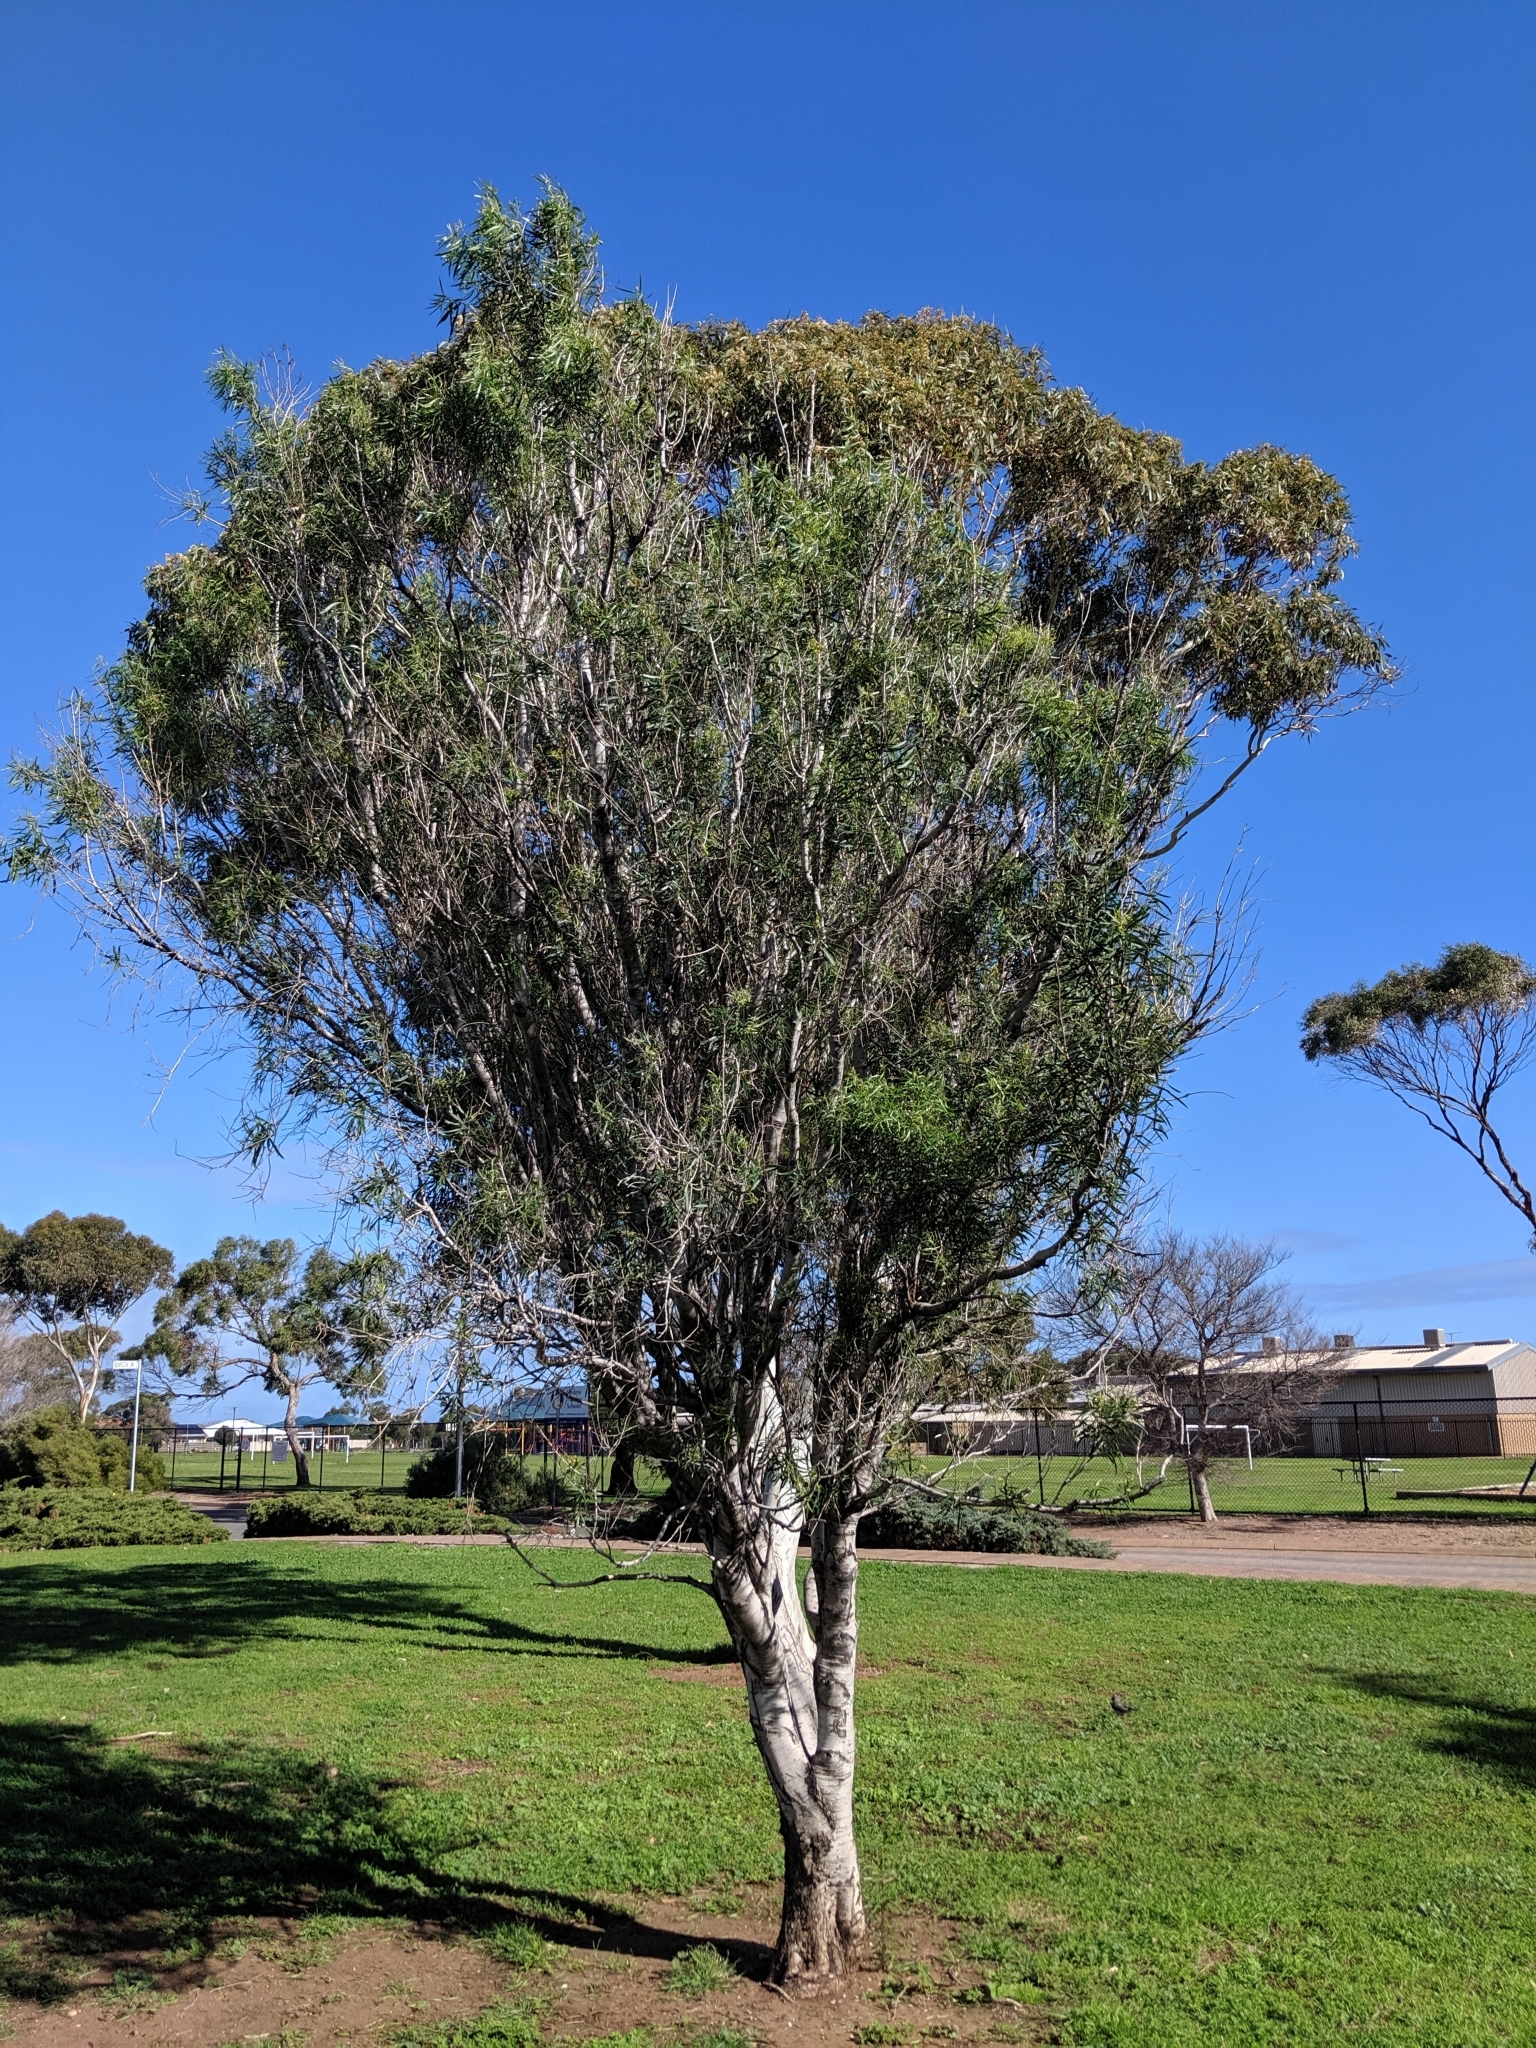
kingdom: Plantae
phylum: Tracheophyta
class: Magnoliopsida
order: Apiales
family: Pittosporaceae
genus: Pittosporum
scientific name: Pittosporum angustifolium
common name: Weeping pittosporum
